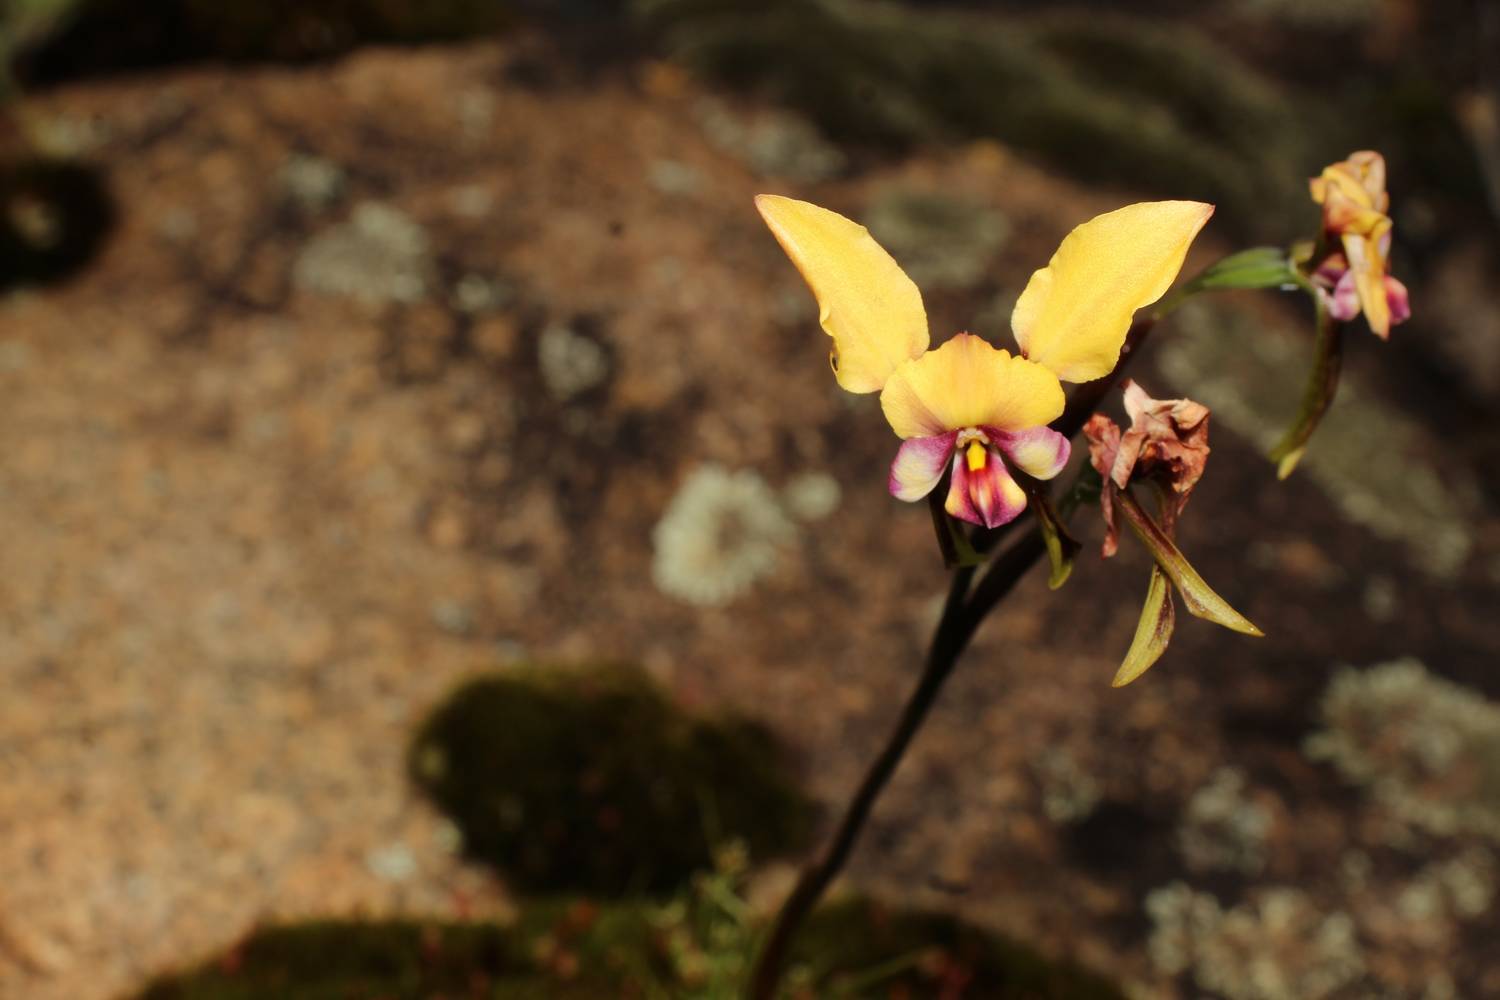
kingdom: Plantae
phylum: Tracheophyta
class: Liliopsida
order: Asparagales
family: Orchidaceae
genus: Diuris
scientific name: Diuris pulchella
